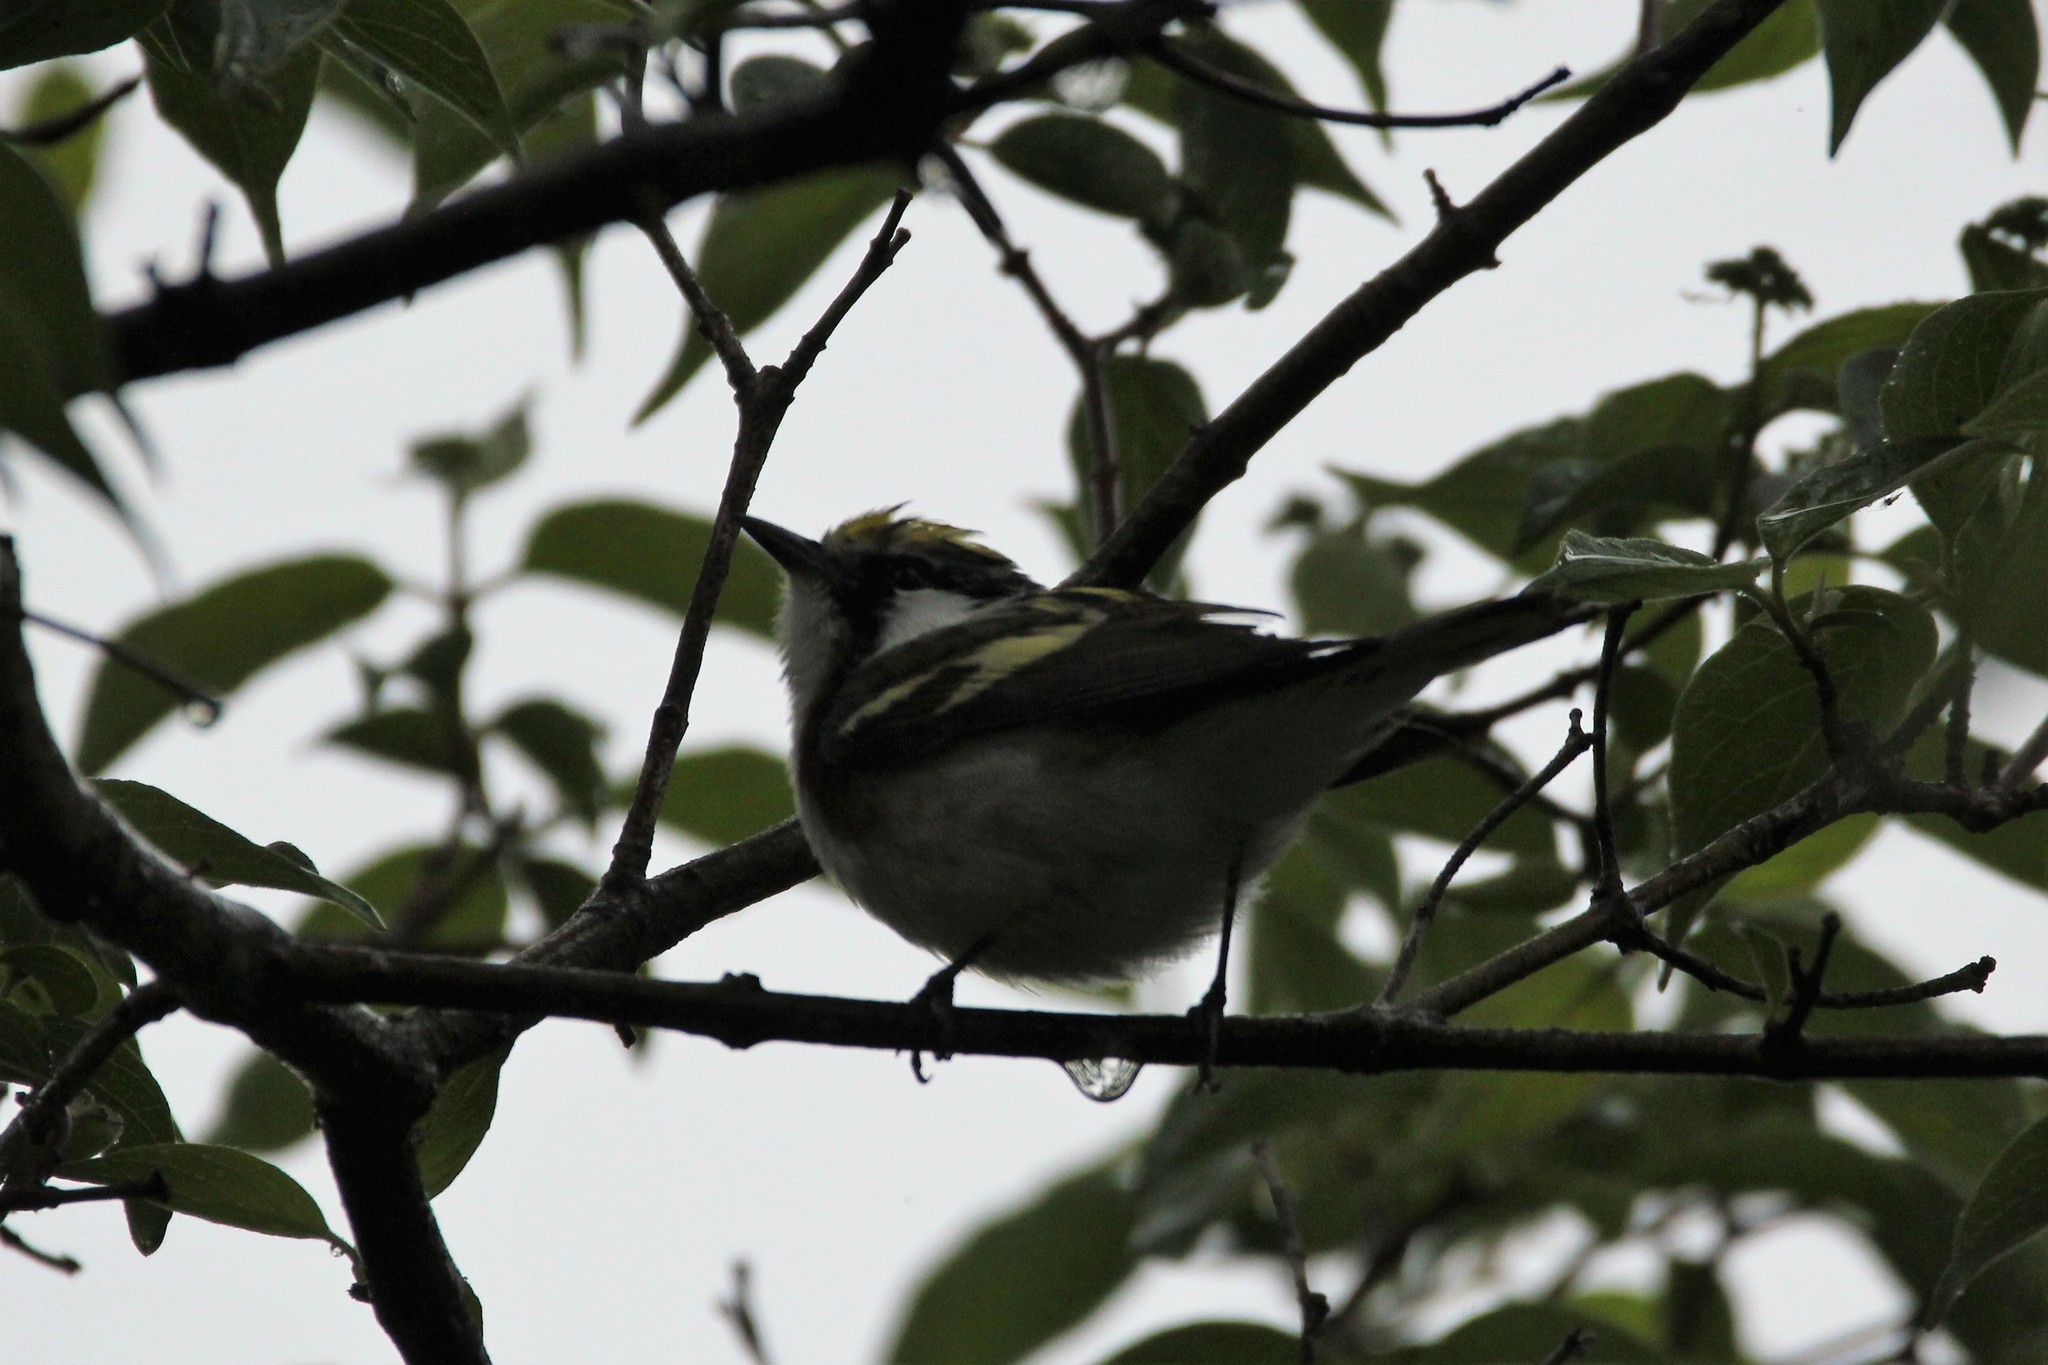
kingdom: Animalia
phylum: Chordata
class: Aves
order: Passeriformes
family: Parulidae
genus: Setophaga
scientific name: Setophaga pensylvanica
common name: Chestnut-sided warbler
